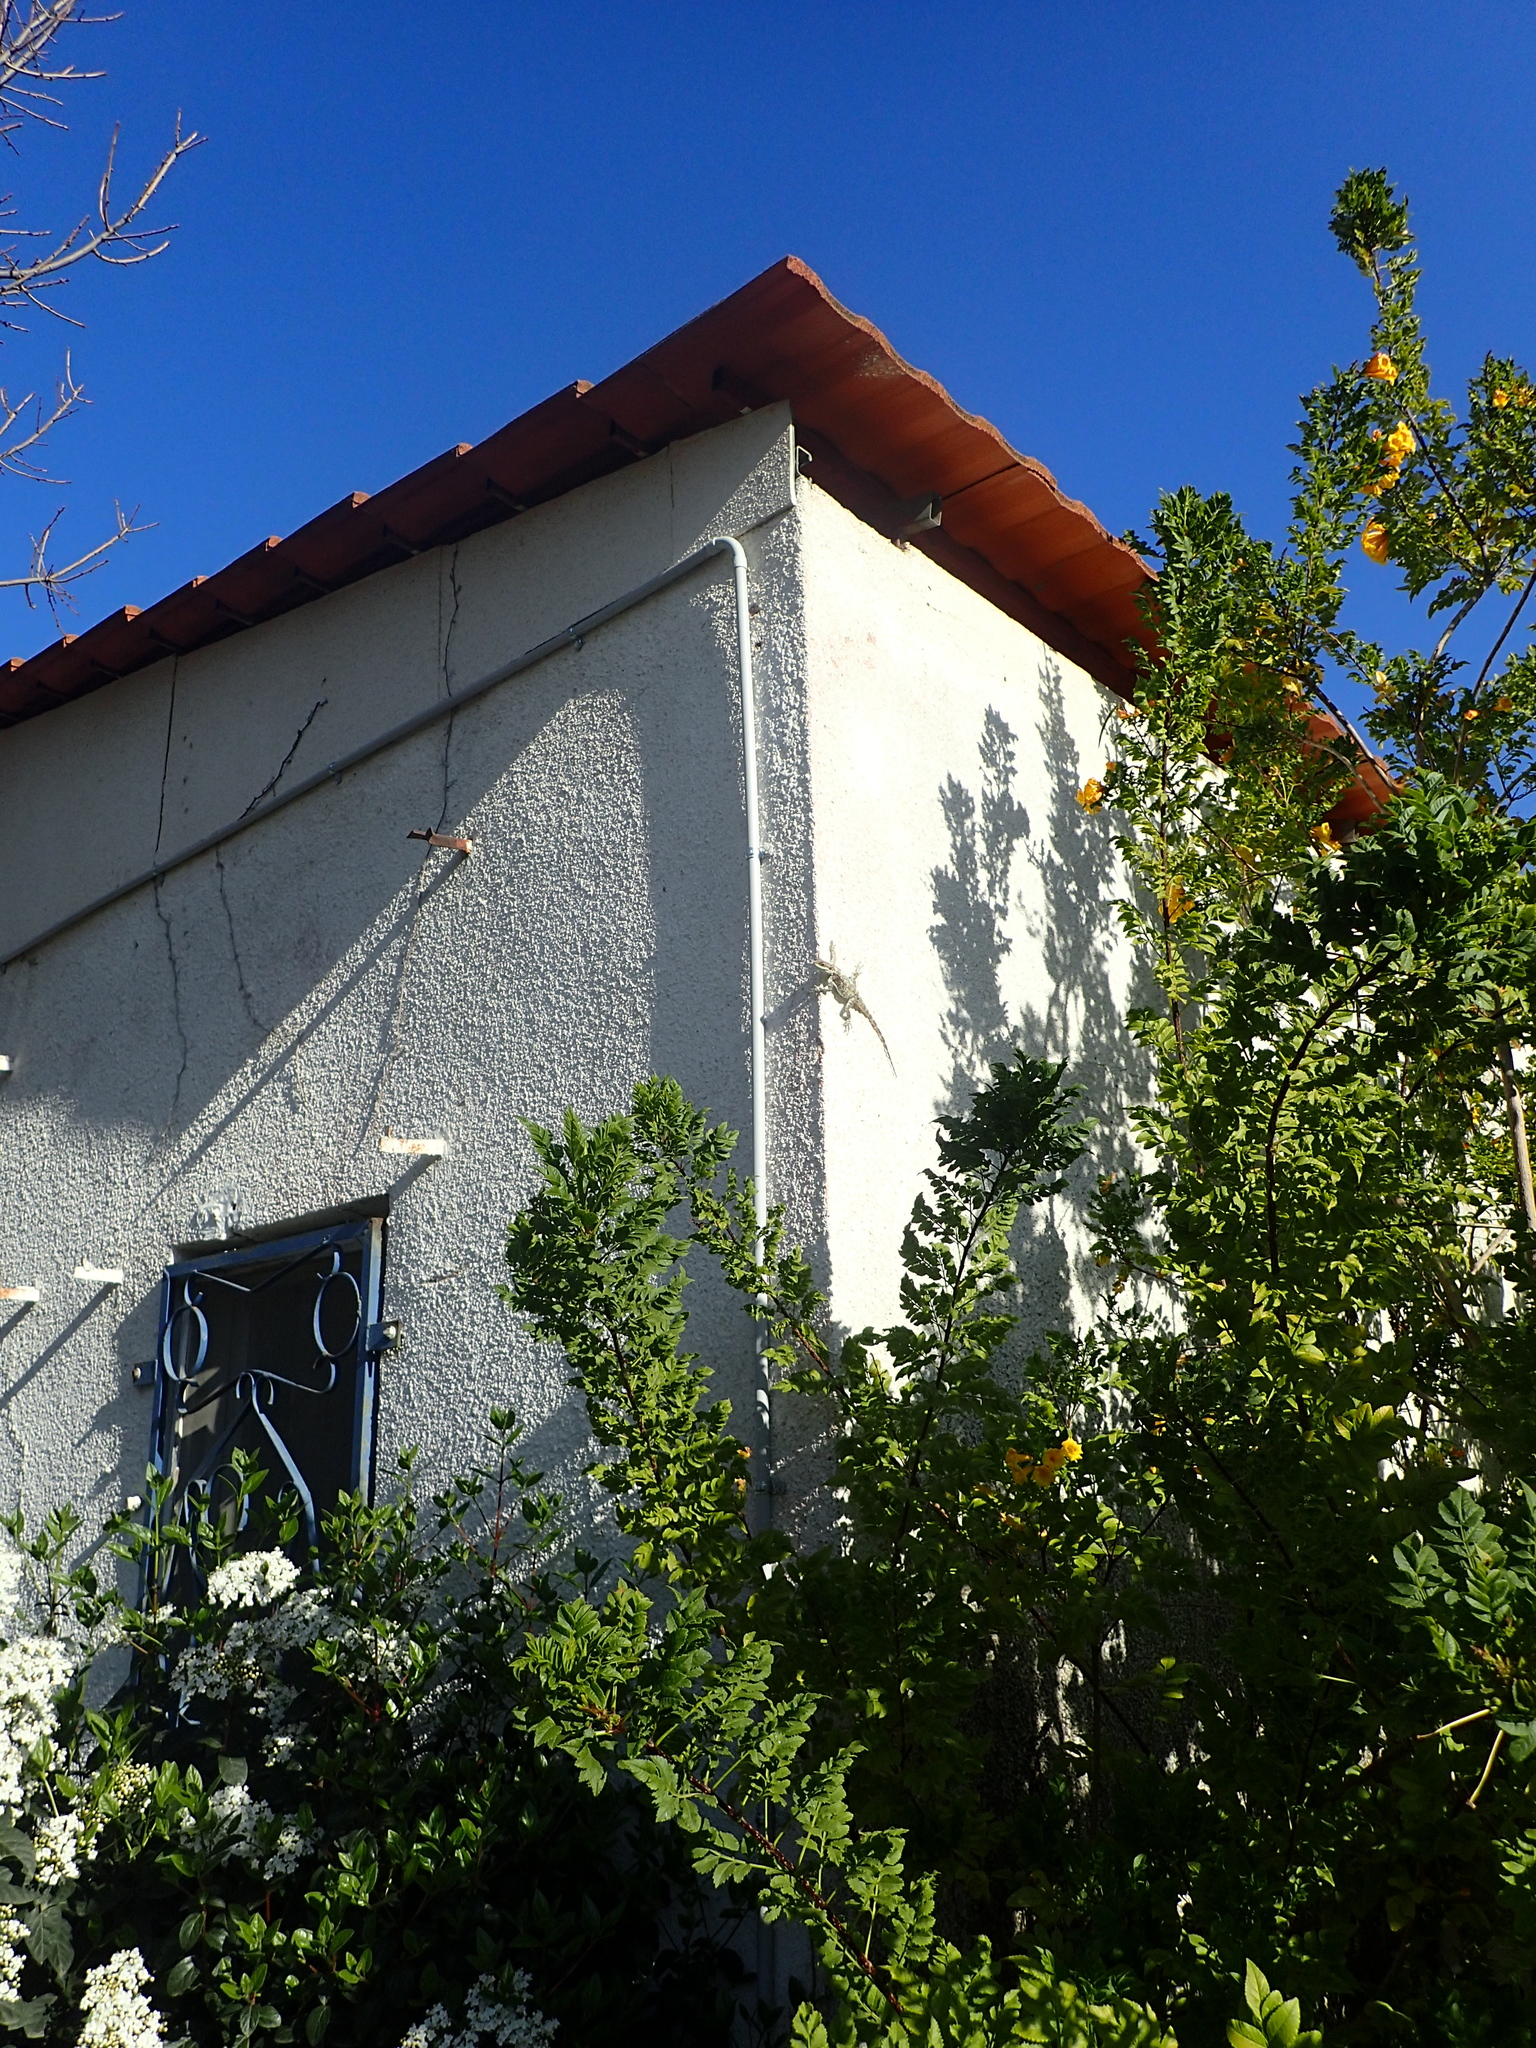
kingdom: Animalia
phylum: Chordata
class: Squamata
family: Agamidae
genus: Laudakia
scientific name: Laudakia vulgaris
